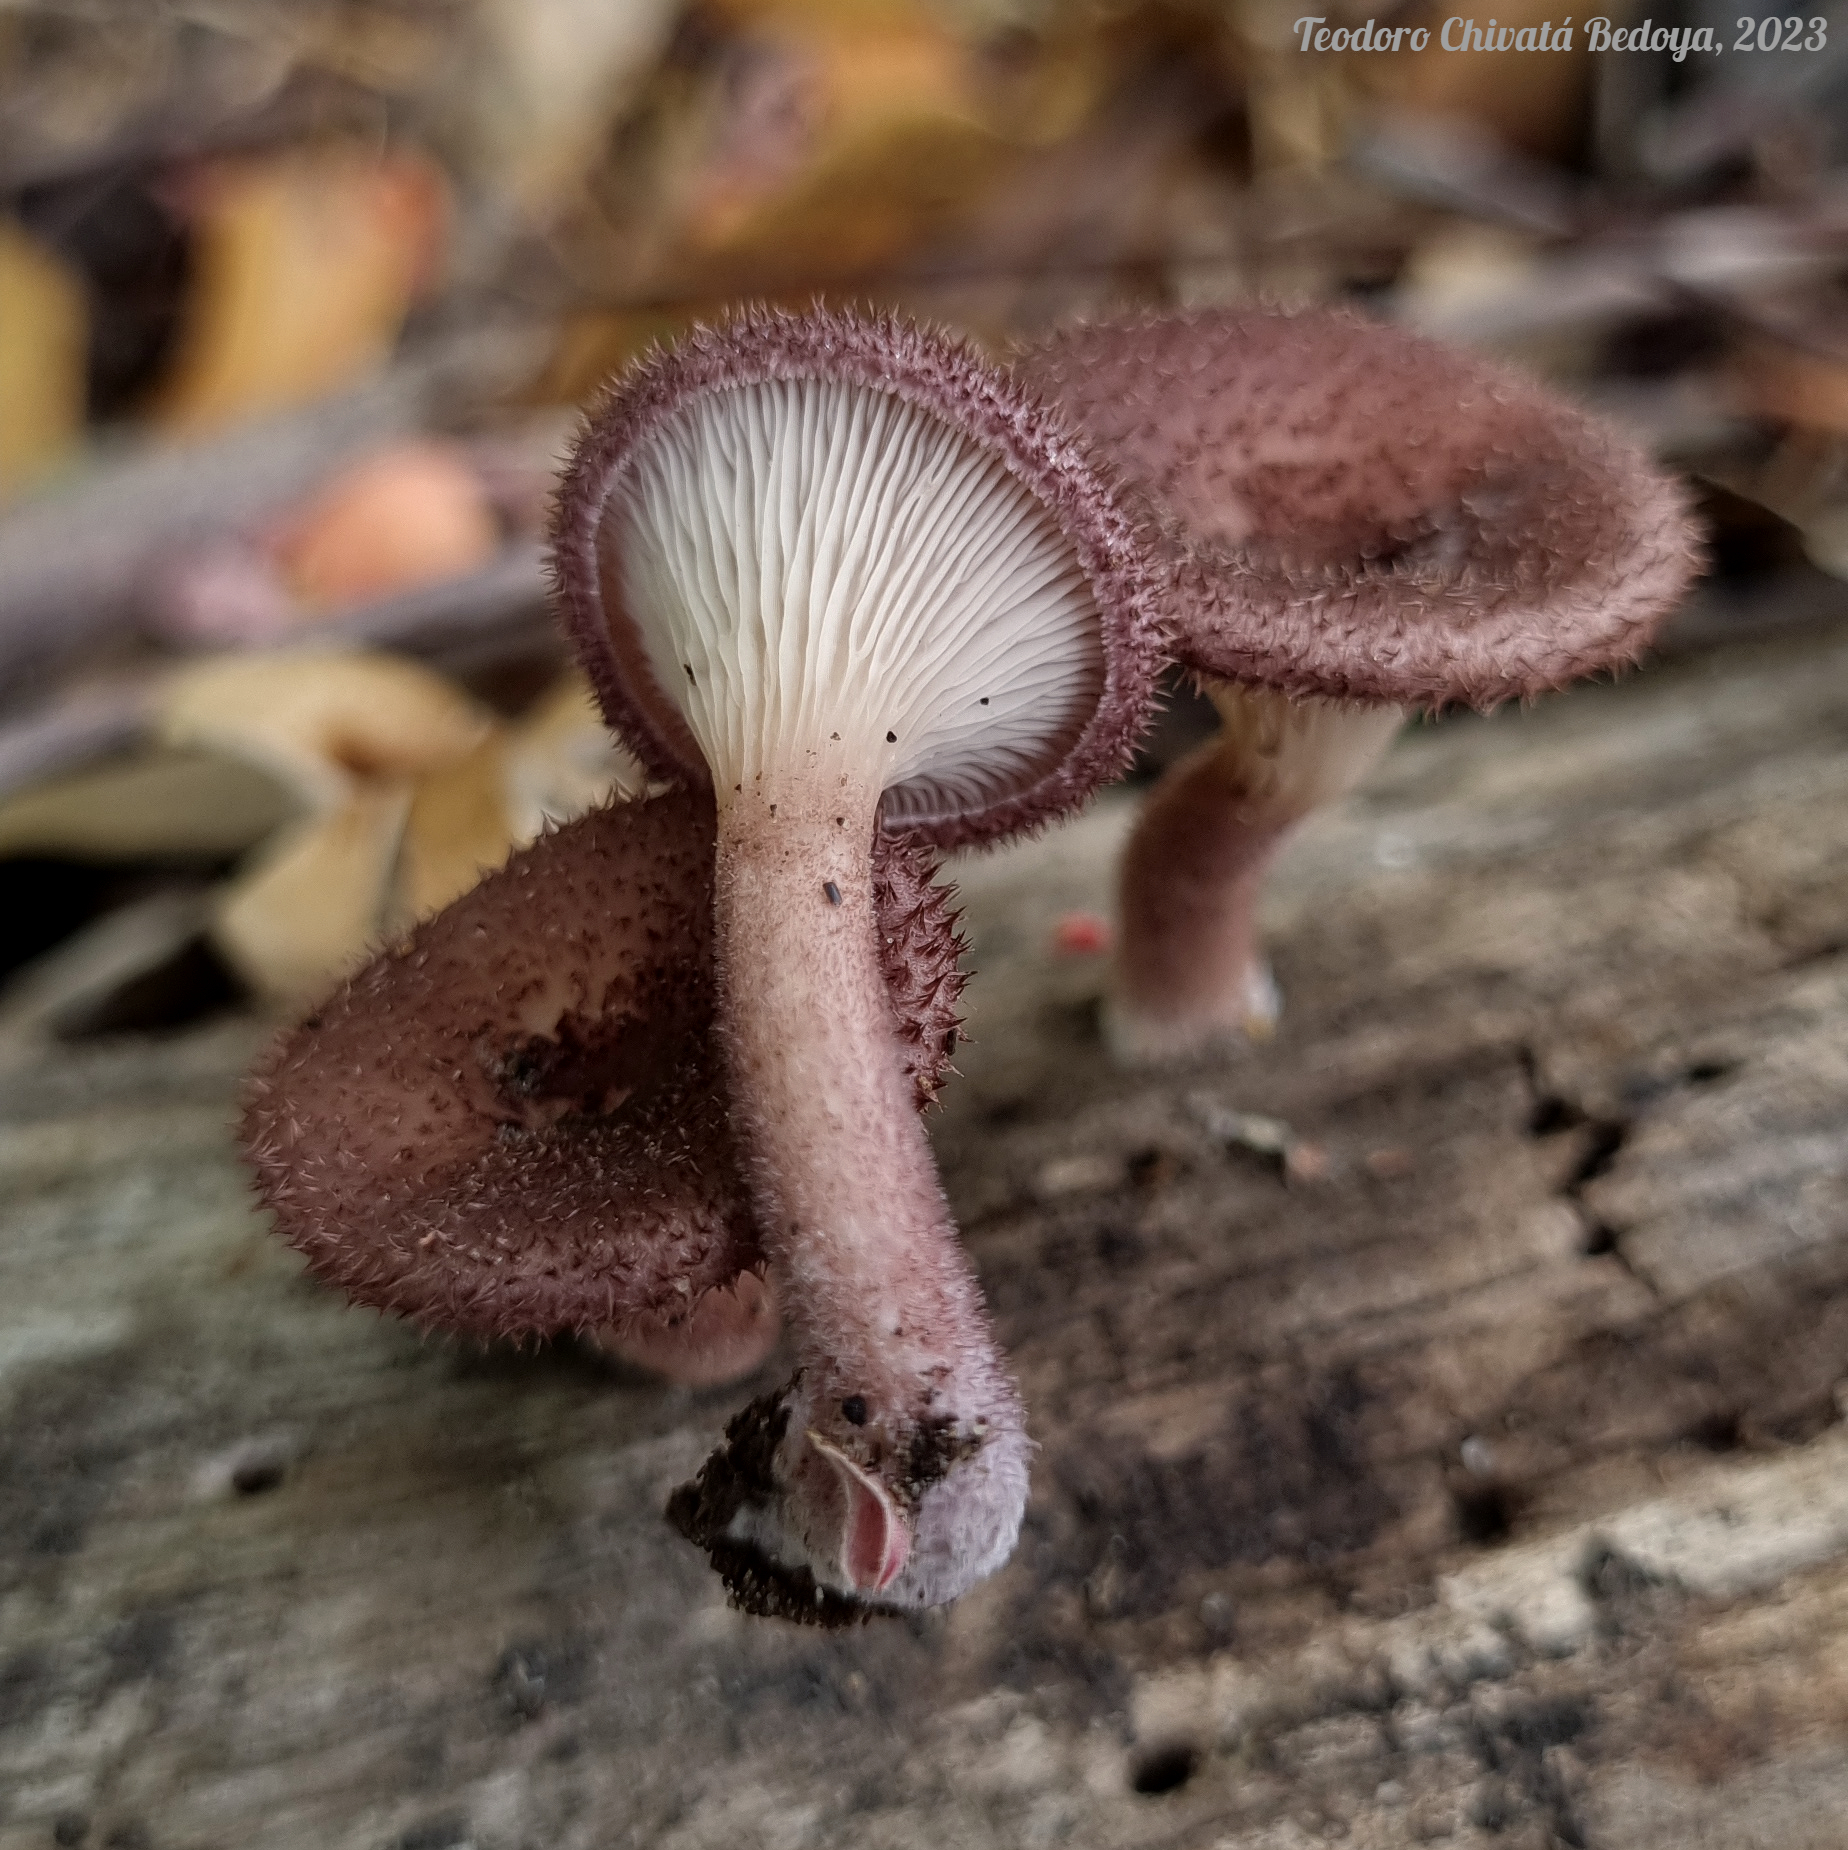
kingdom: Fungi
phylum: Basidiomycota
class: Agaricomycetes
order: Polyporales
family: Panaceae
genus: Panus
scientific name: Panus strigellus
